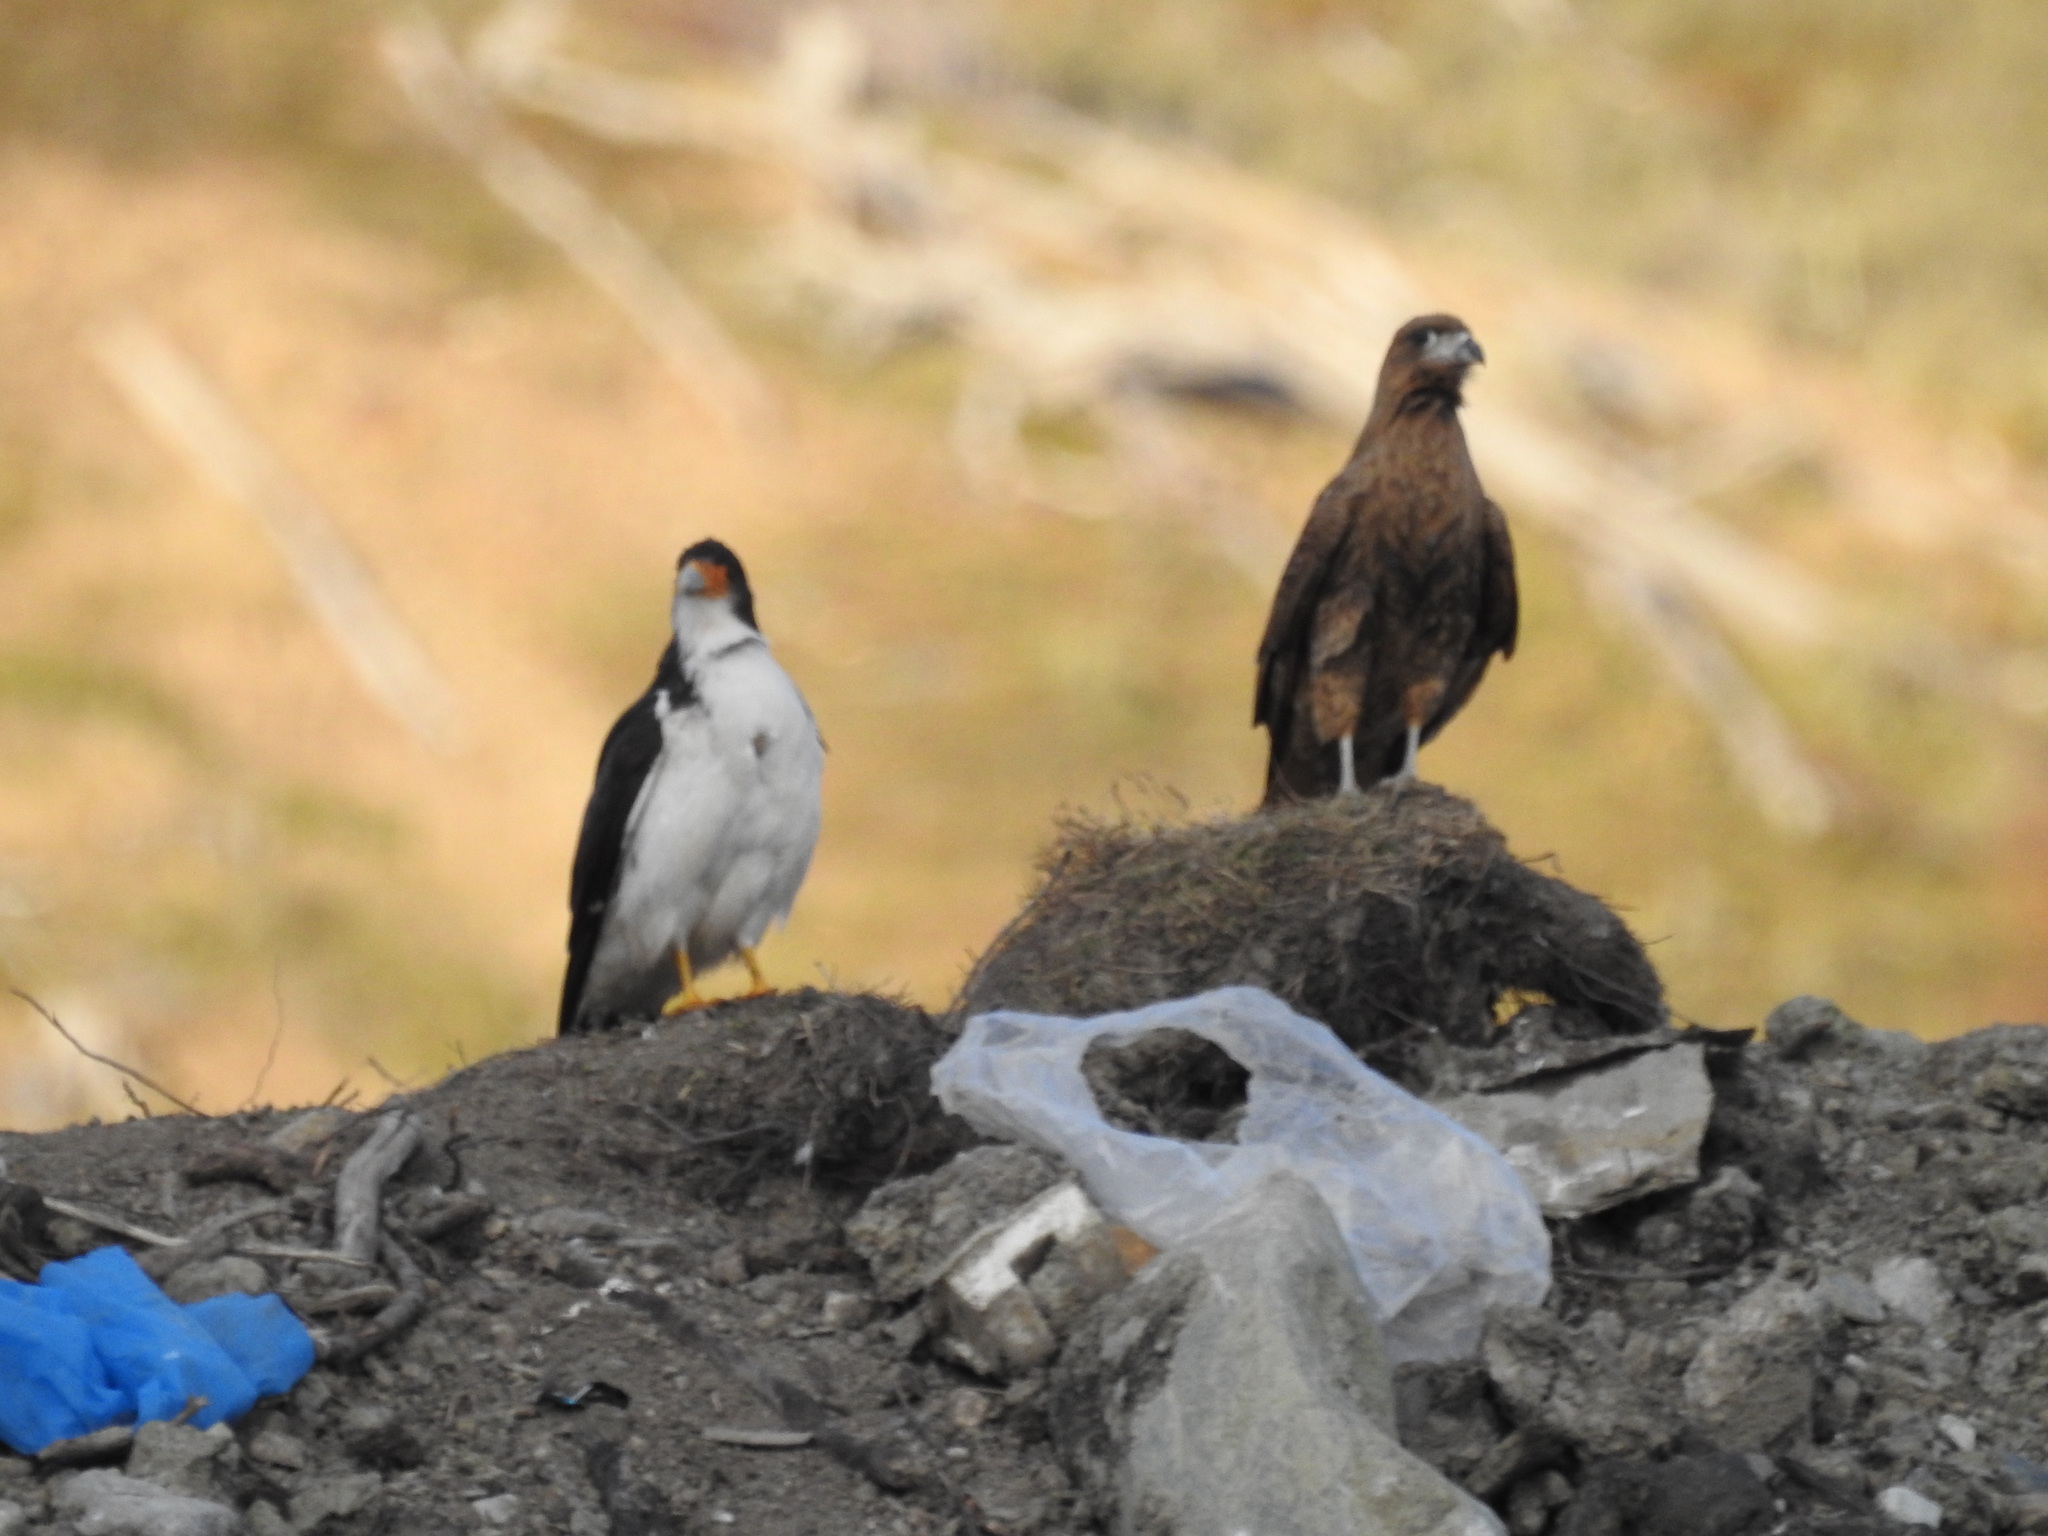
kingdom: Animalia
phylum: Chordata
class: Aves
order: Falconiformes
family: Falconidae
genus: Daptrius
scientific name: Daptrius
